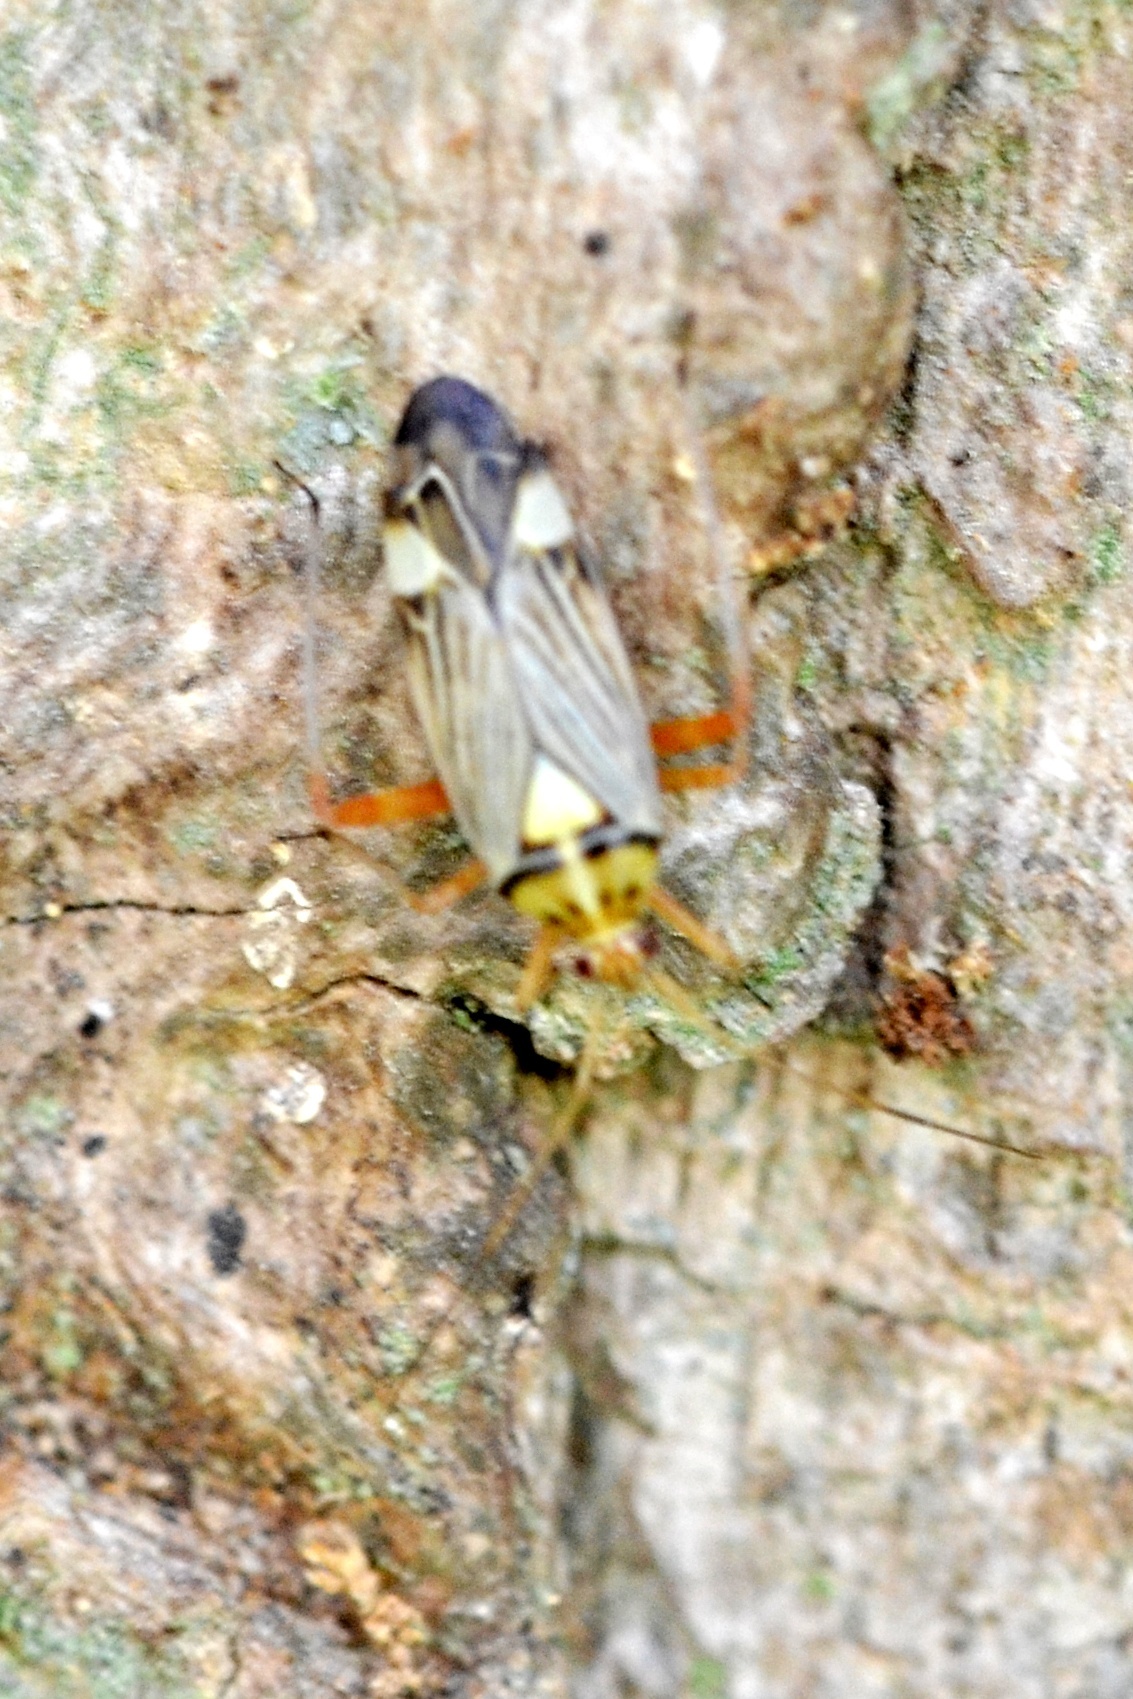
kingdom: Animalia
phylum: Arthropoda
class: Insecta
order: Hemiptera
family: Miridae
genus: Rhabdomiris
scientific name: Rhabdomiris striatellus
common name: Plant bug
